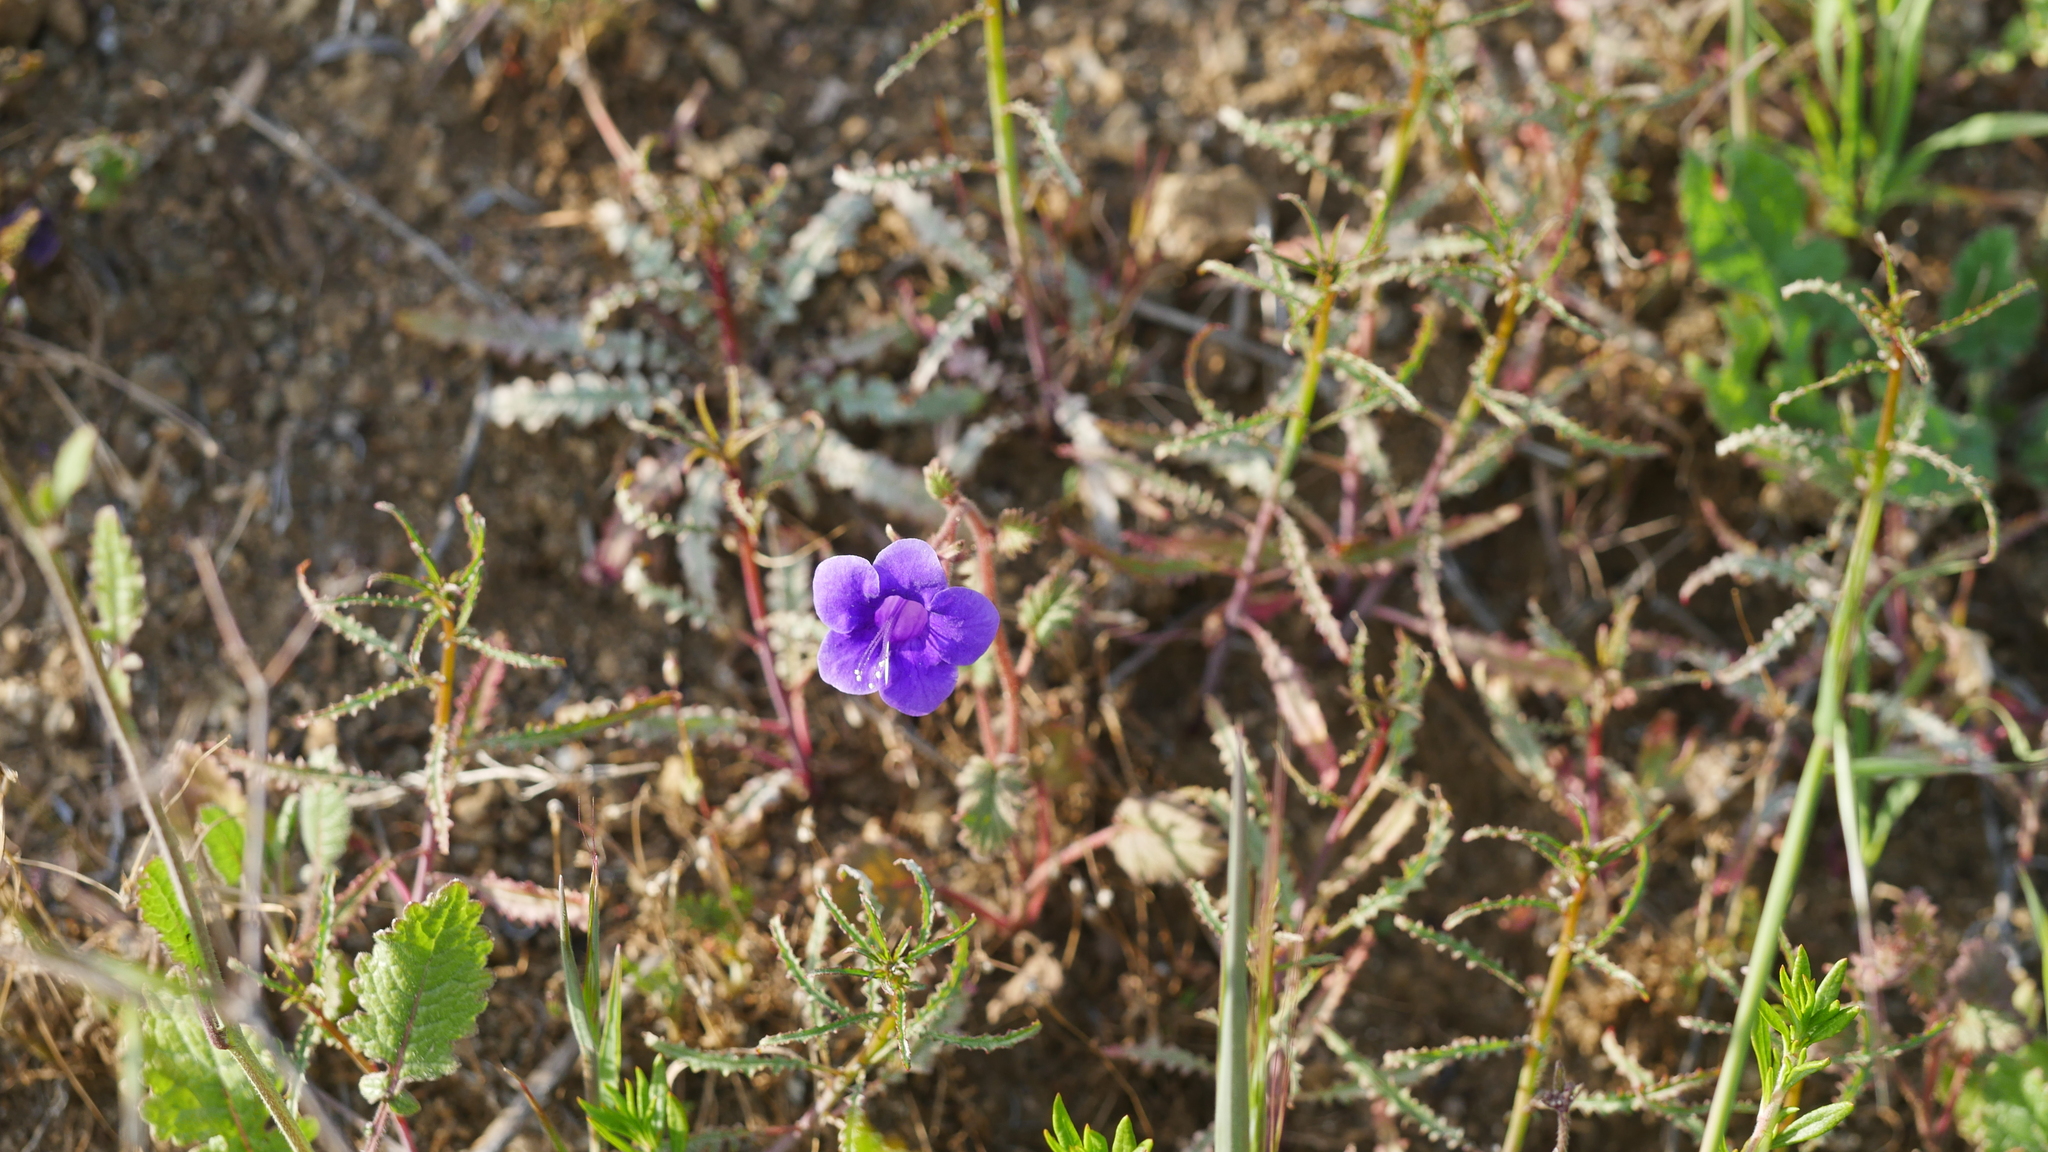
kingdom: Plantae
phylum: Tracheophyta
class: Magnoliopsida
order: Boraginales
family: Hydrophyllaceae
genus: Phacelia
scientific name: Phacelia minor
